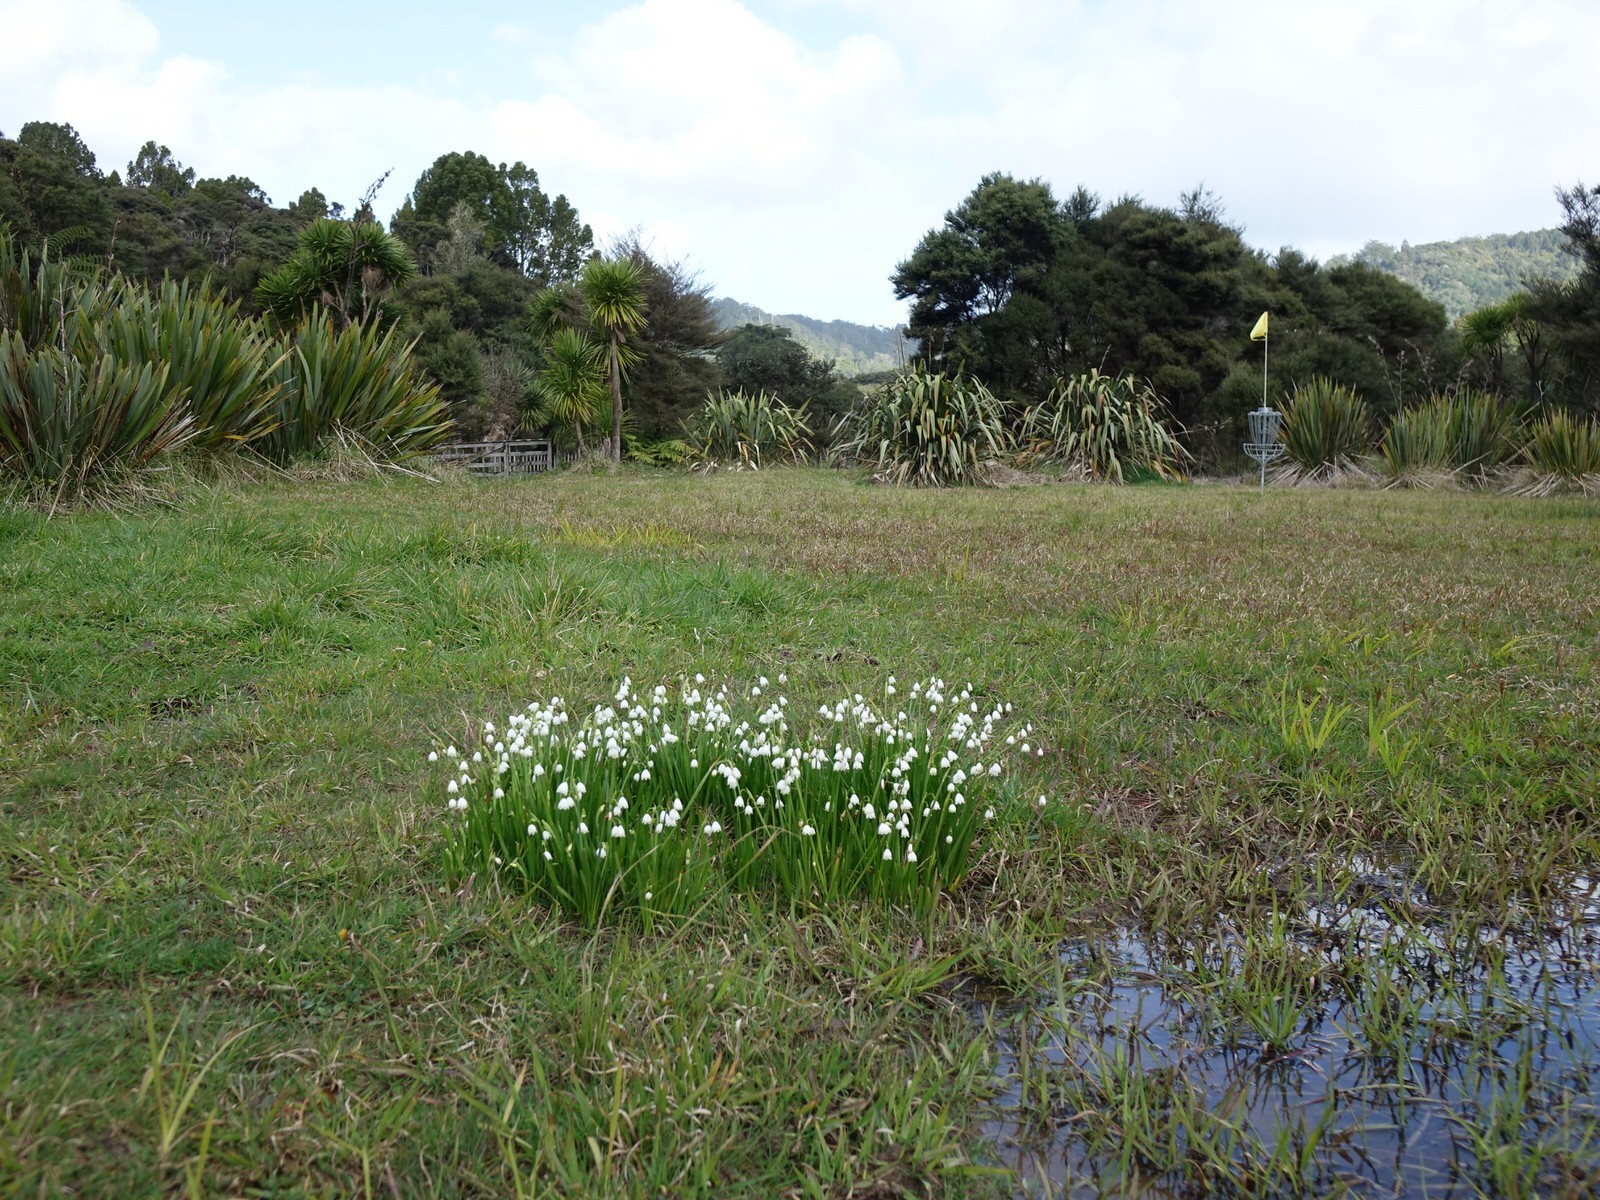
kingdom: Plantae
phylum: Tracheophyta
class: Liliopsida
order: Asparagales
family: Amaryllidaceae
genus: Leucojum
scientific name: Leucojum aestivum
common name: Summer snowflake
